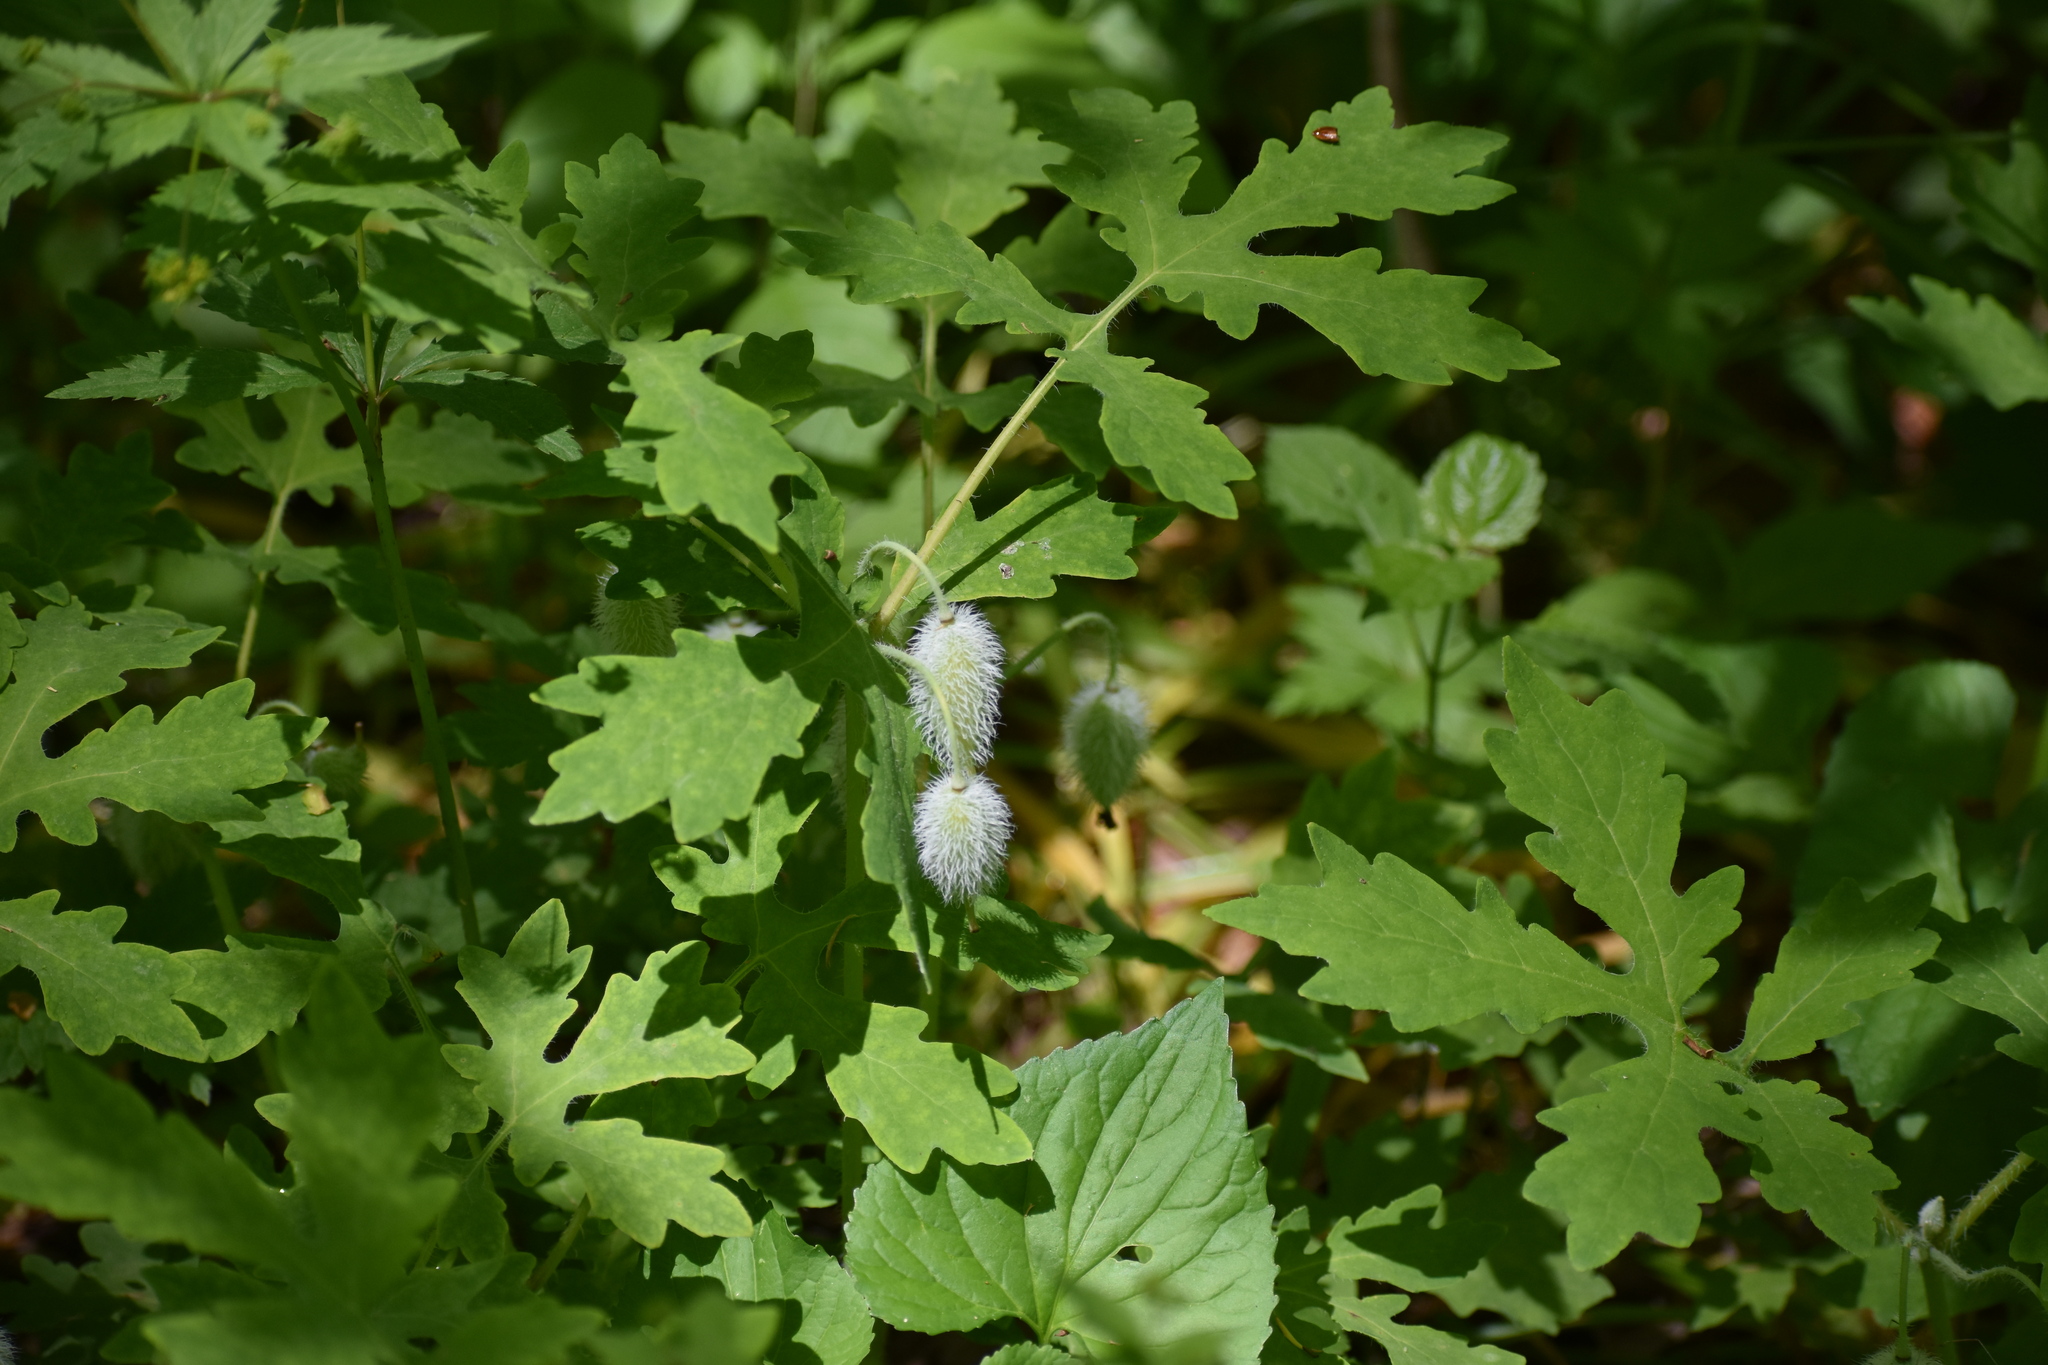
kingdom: Plantae
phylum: Tracheophyta
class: Magnoliopsida
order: Ranunculales
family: Papaveraceae
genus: Stylophorum
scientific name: Stylophorum diphyllum
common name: Celandine poppy
